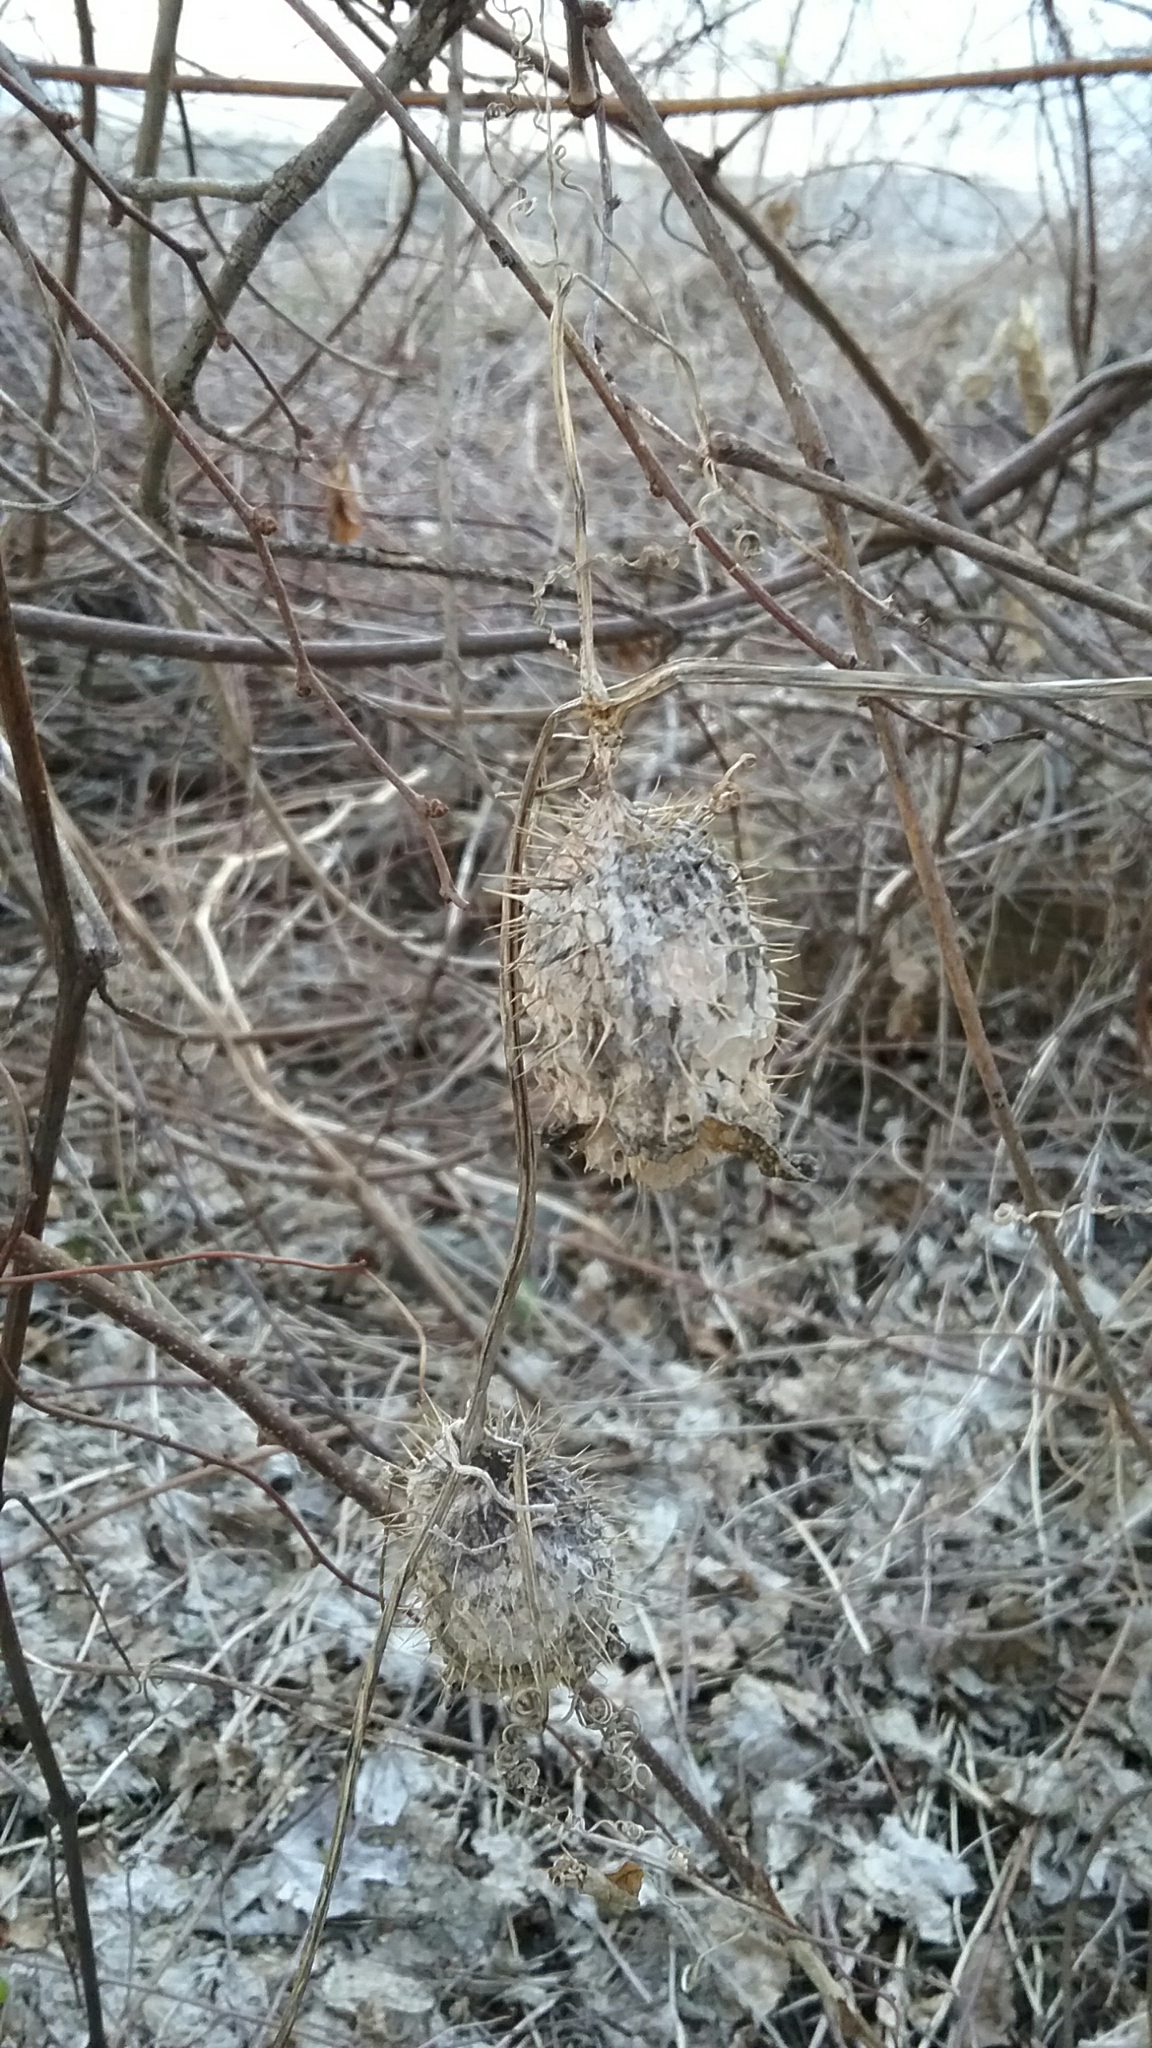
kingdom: Plantae
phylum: Tracheophyta
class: Magnoliopsida
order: Cucurbitales
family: Cucurbitaceae
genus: Echinocystis
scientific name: Echinocystis lobata
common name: Wild cucumber
